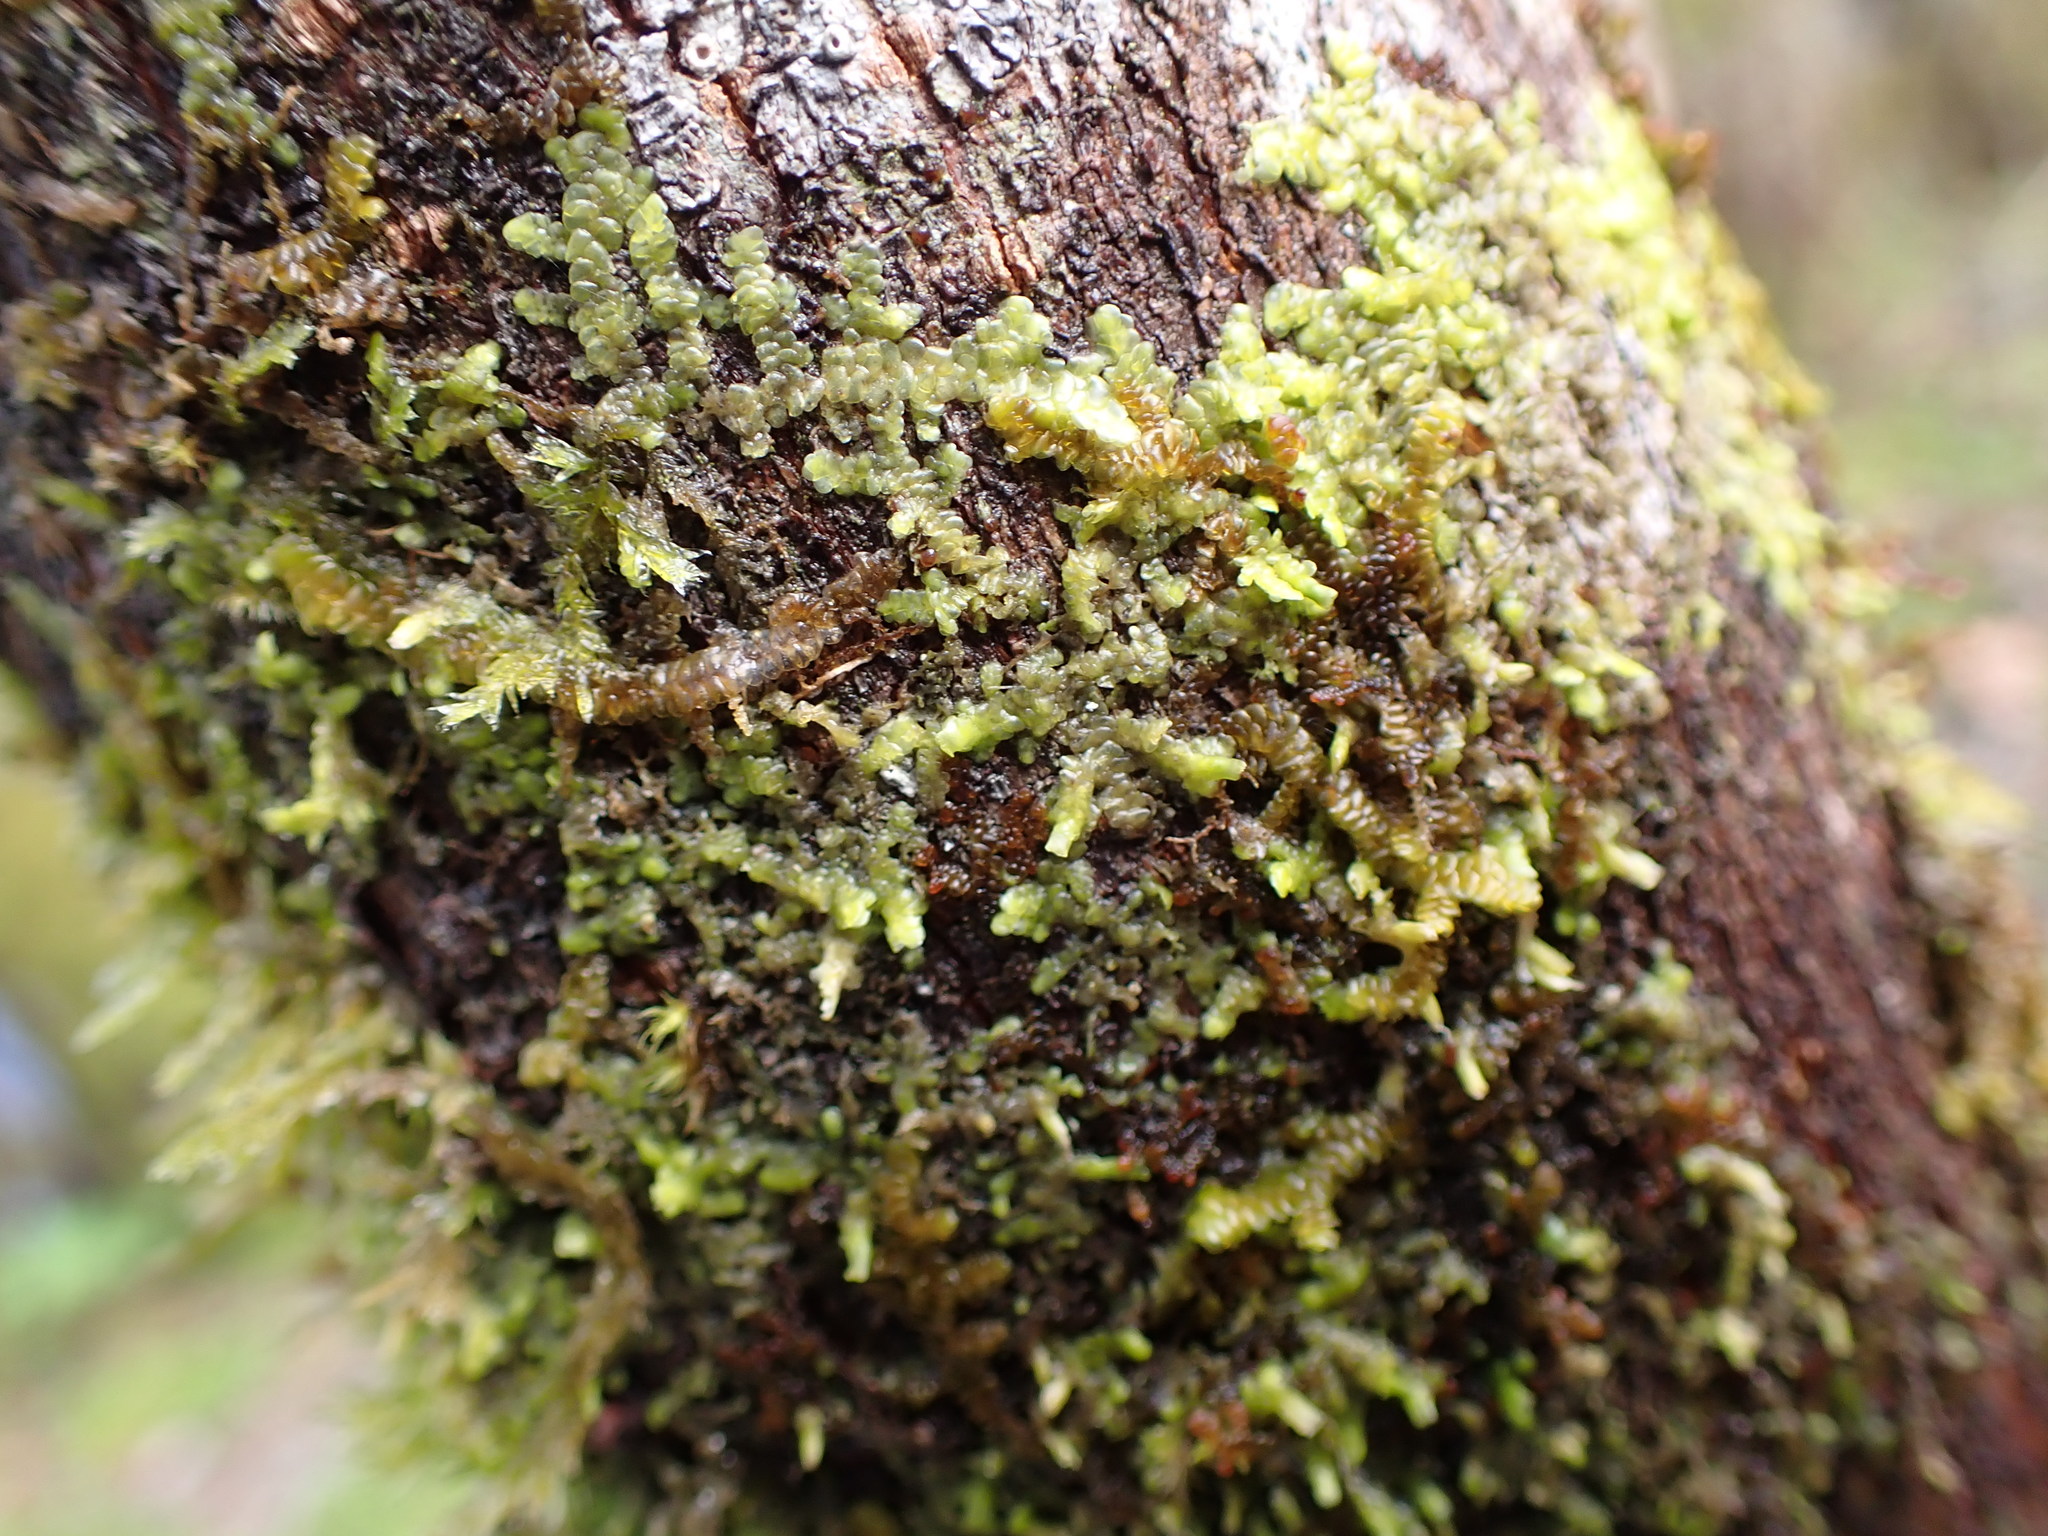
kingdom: Plantae
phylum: Marchantiophyta
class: Jungermanniopsida
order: Porellales
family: Radulaceae
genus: Radula
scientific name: Radula complanata
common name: Flat-leaved scalewort
